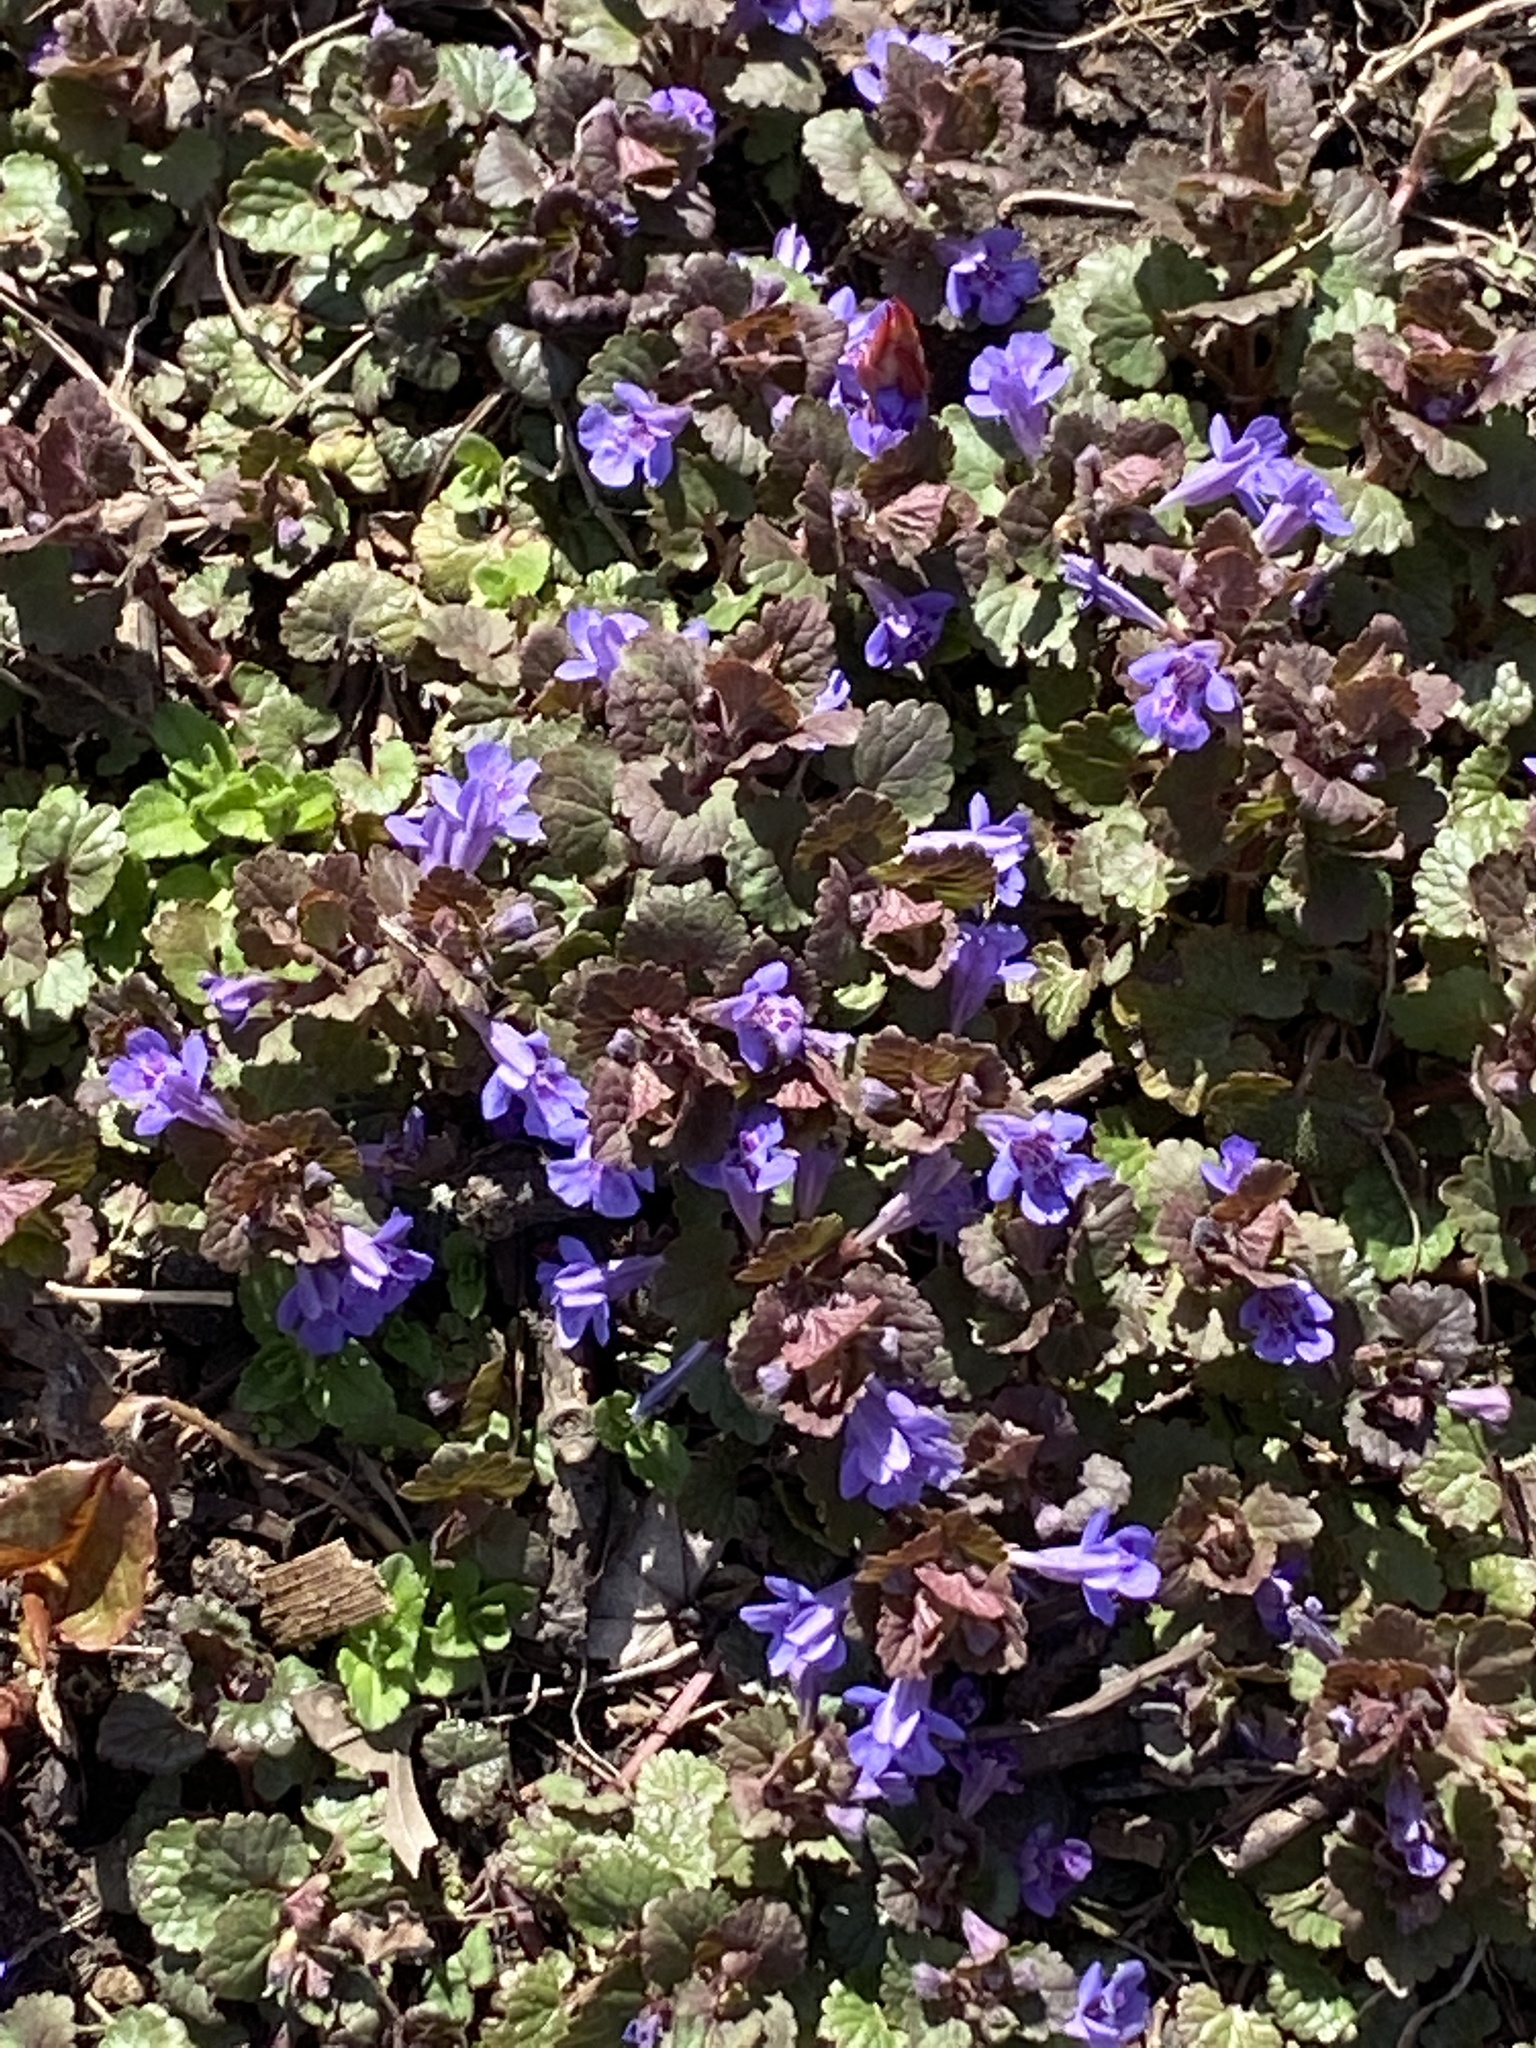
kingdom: Plantae
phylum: Tracheophyta
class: Magnoliopsida
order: Lamiales
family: Lamiaceae
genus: Glechoma
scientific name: Glechoma hederacea
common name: Ground ivy
